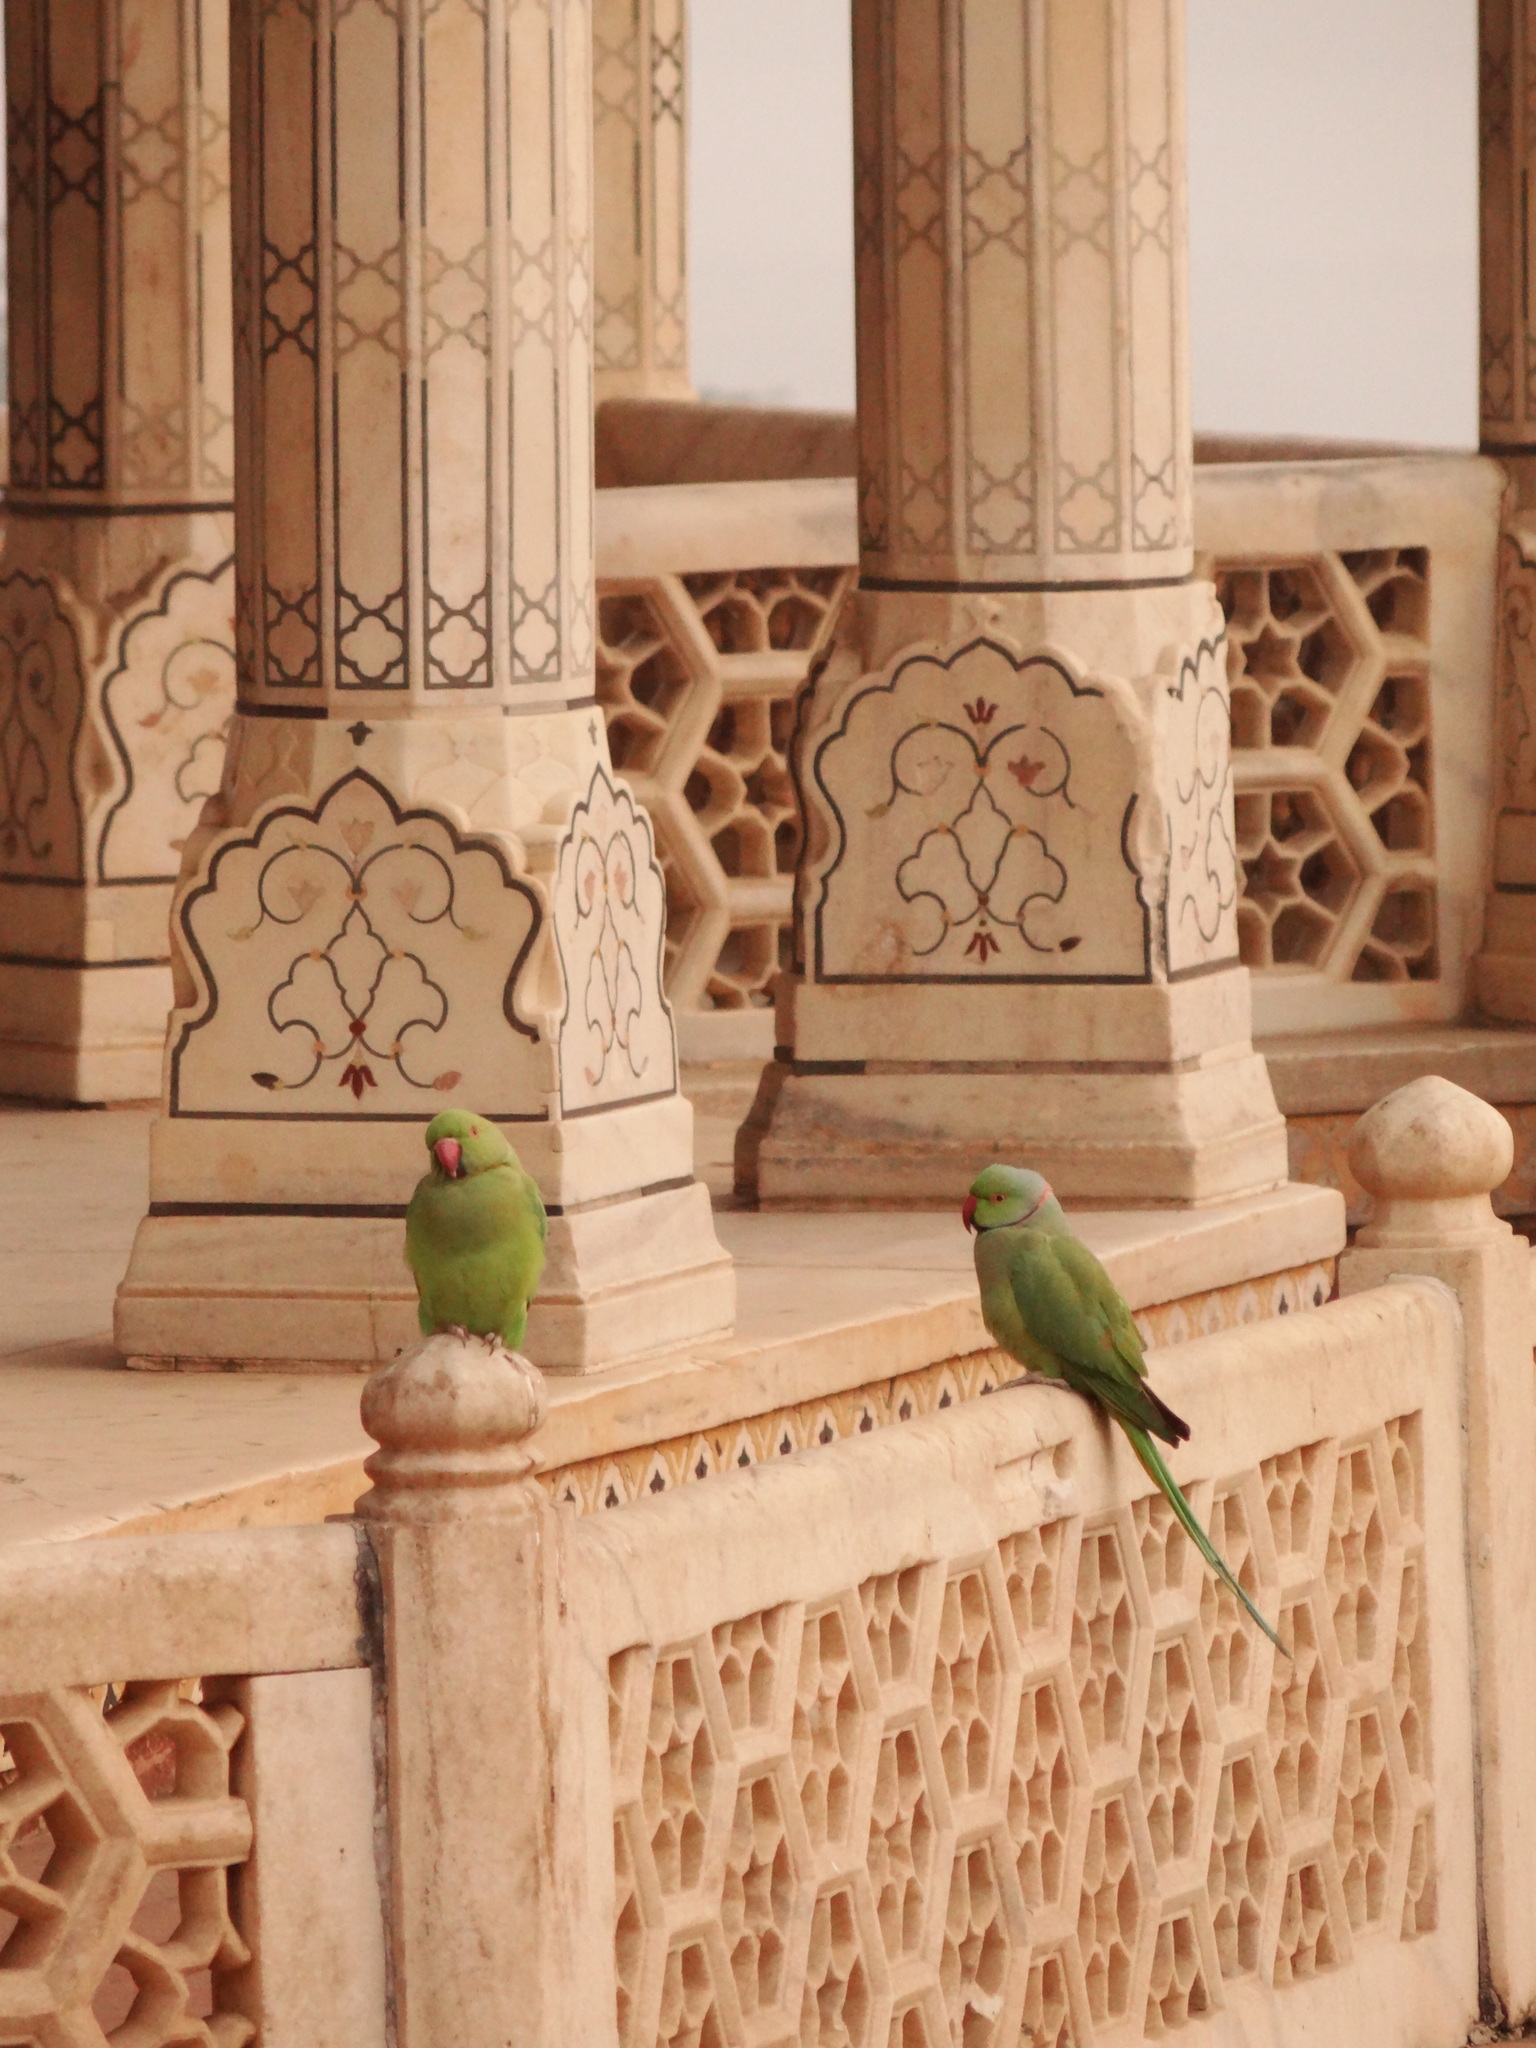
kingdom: Animalia
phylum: Chordata
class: Aves
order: Psittaciformes
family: Psittacidae
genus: Psittacula
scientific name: Psittacula krameri
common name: Rose-ringed parakeet
